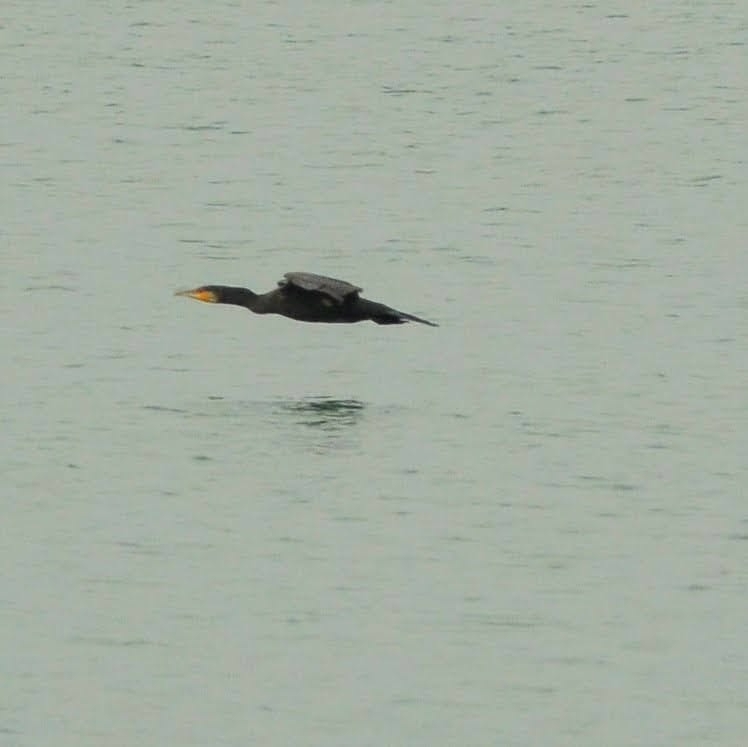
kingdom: Animalia
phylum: Chordata
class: Aves
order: Suliformes
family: Phalacrocoracidae
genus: Phalacrocorax
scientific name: Phalacrocorax carbo
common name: Great cormorant
